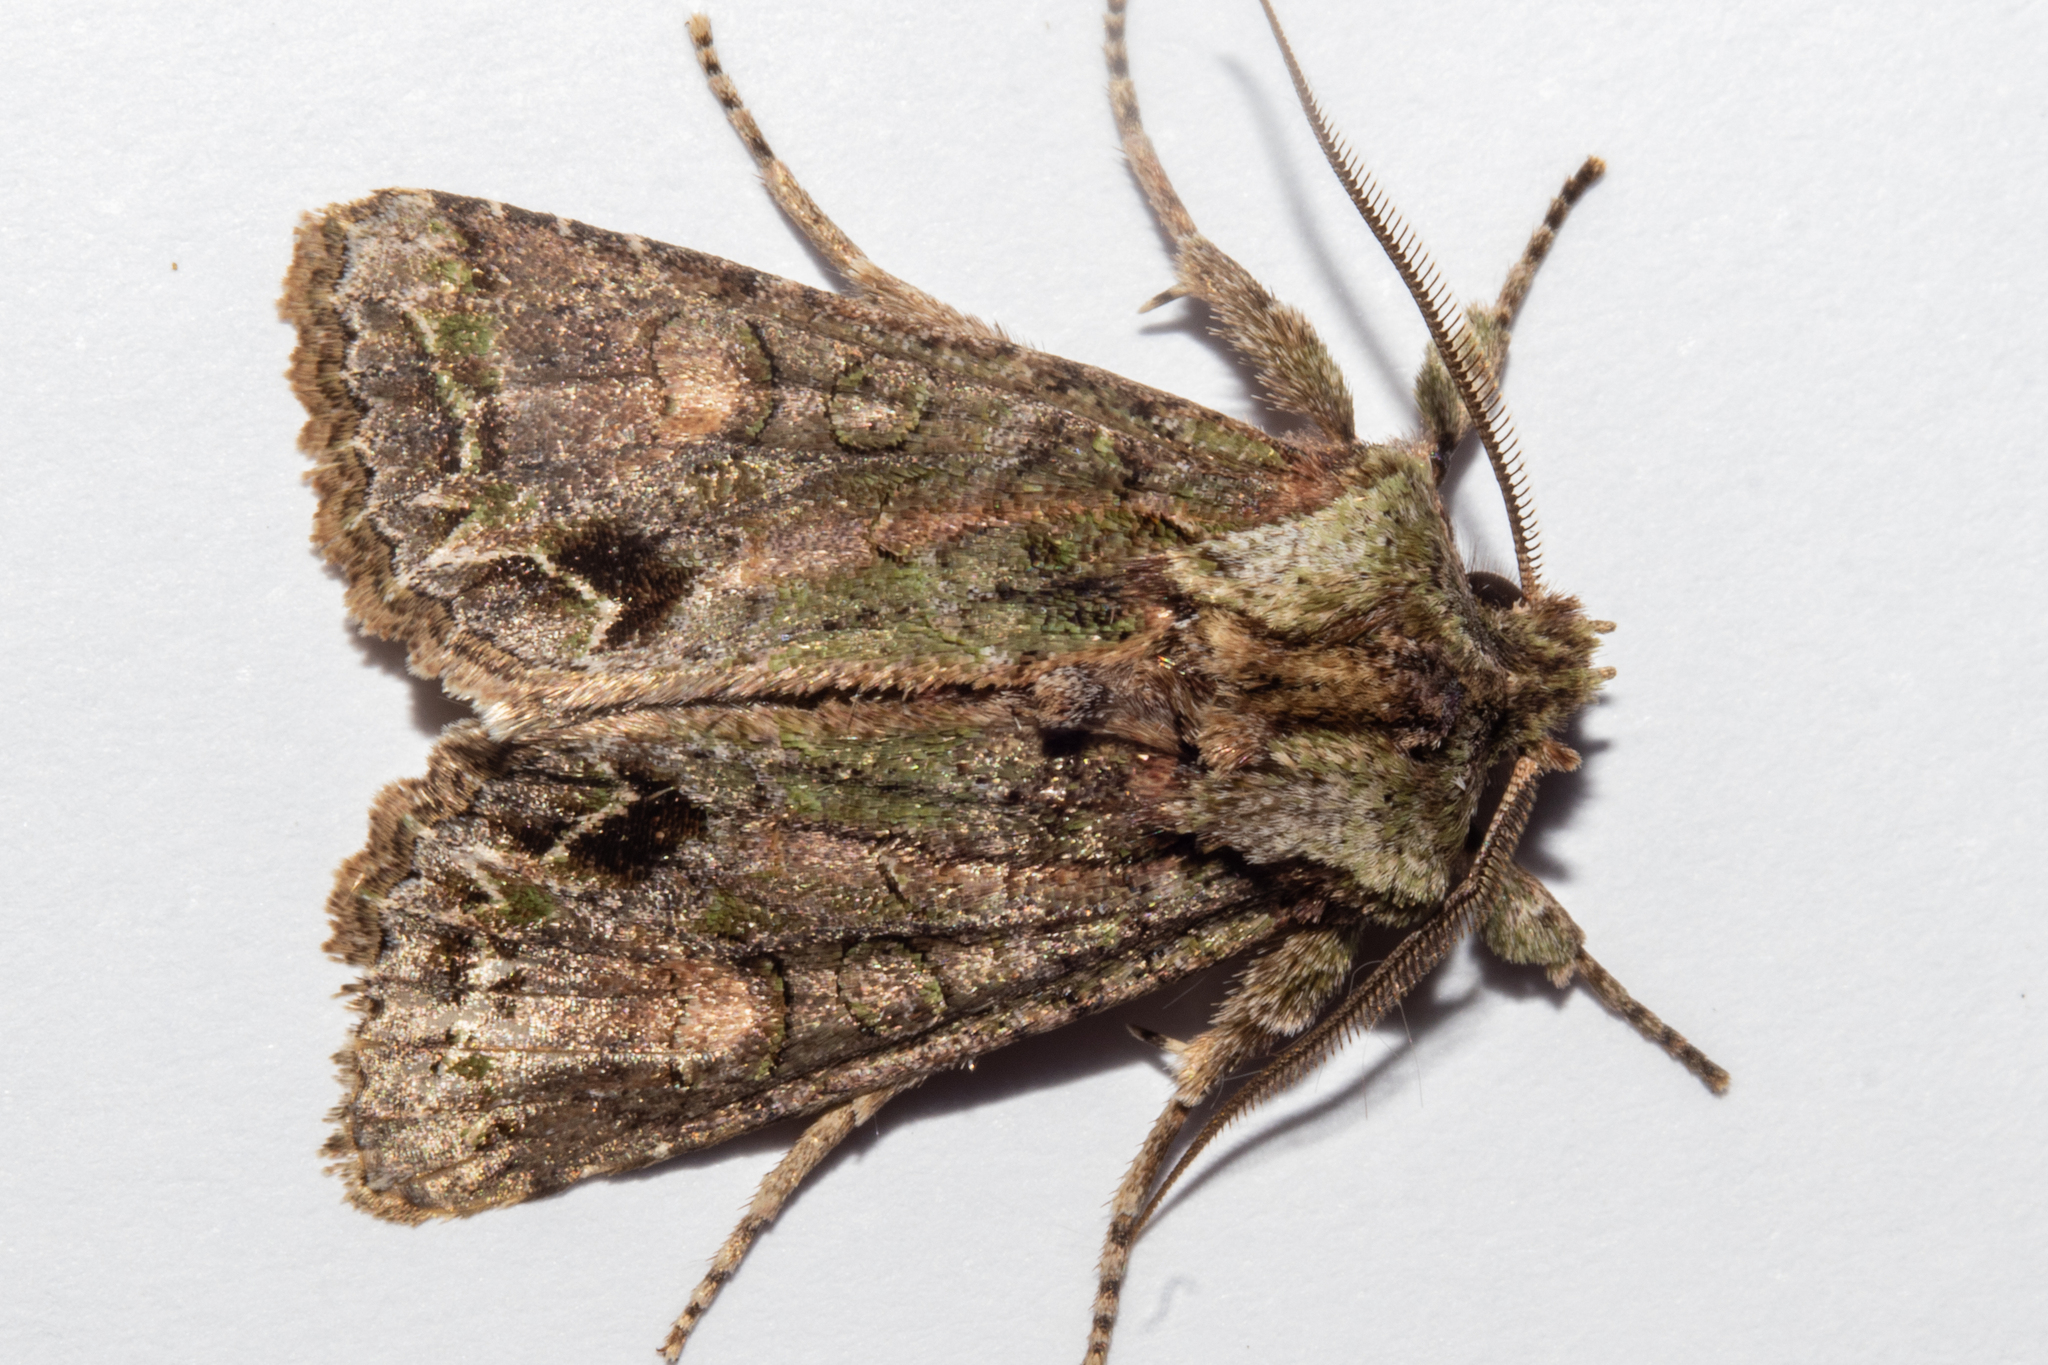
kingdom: Animalia
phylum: Arthropoda
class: Insecta
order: Lepidoptera
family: Noctuidae
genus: Ichneutica
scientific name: Ichneutica insignis
